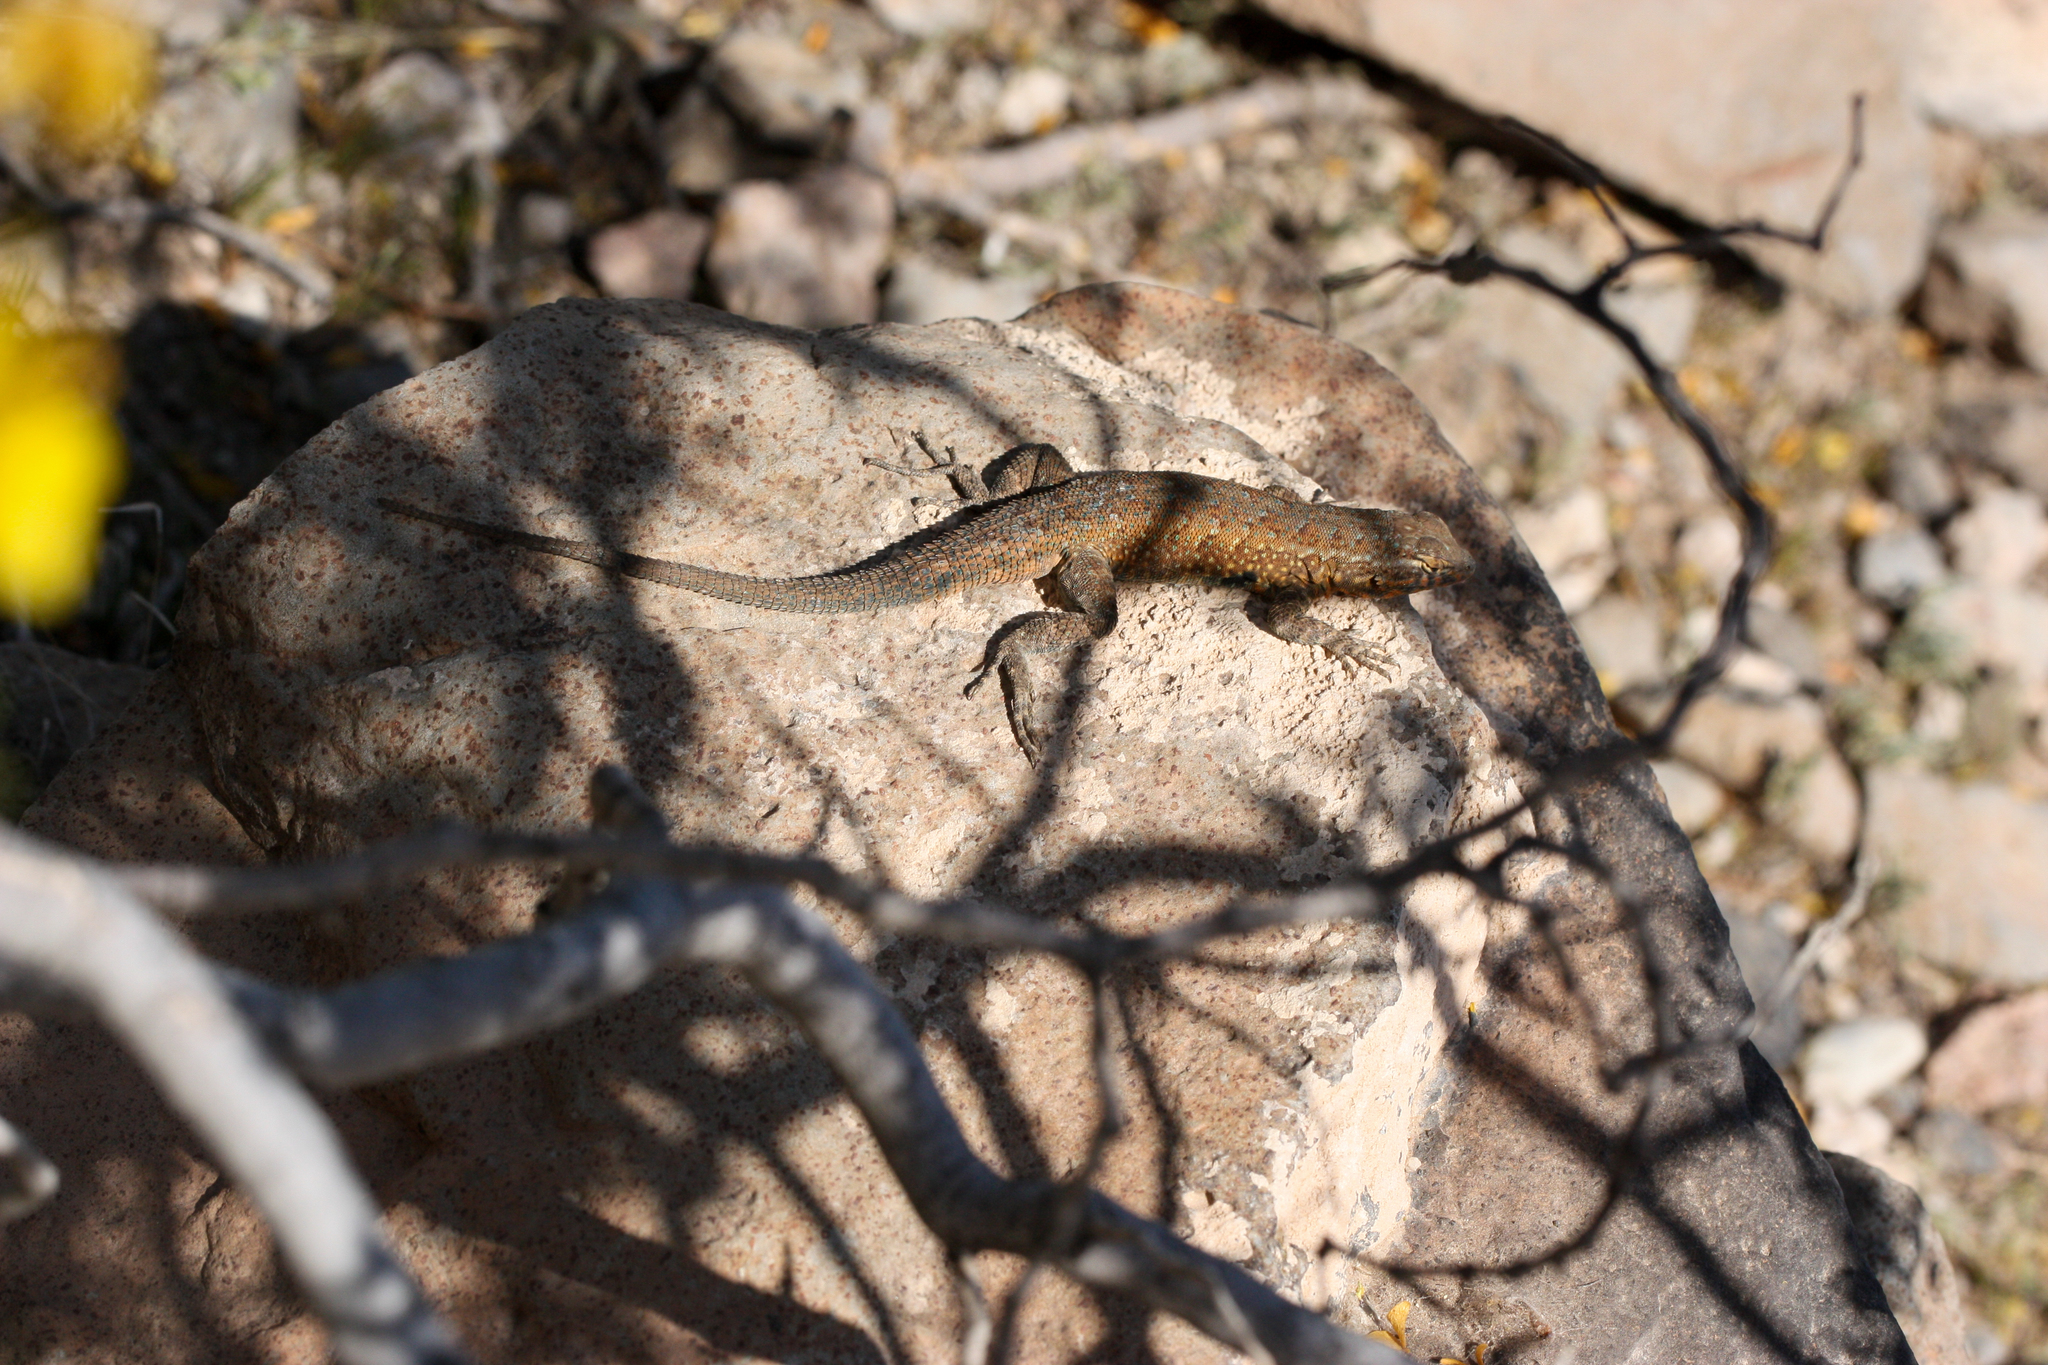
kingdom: Animalia
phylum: Chordata
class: Squamata
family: Phrynosomatidae
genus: Uta
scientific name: Uta stansburiana
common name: Side-blotched lizard
